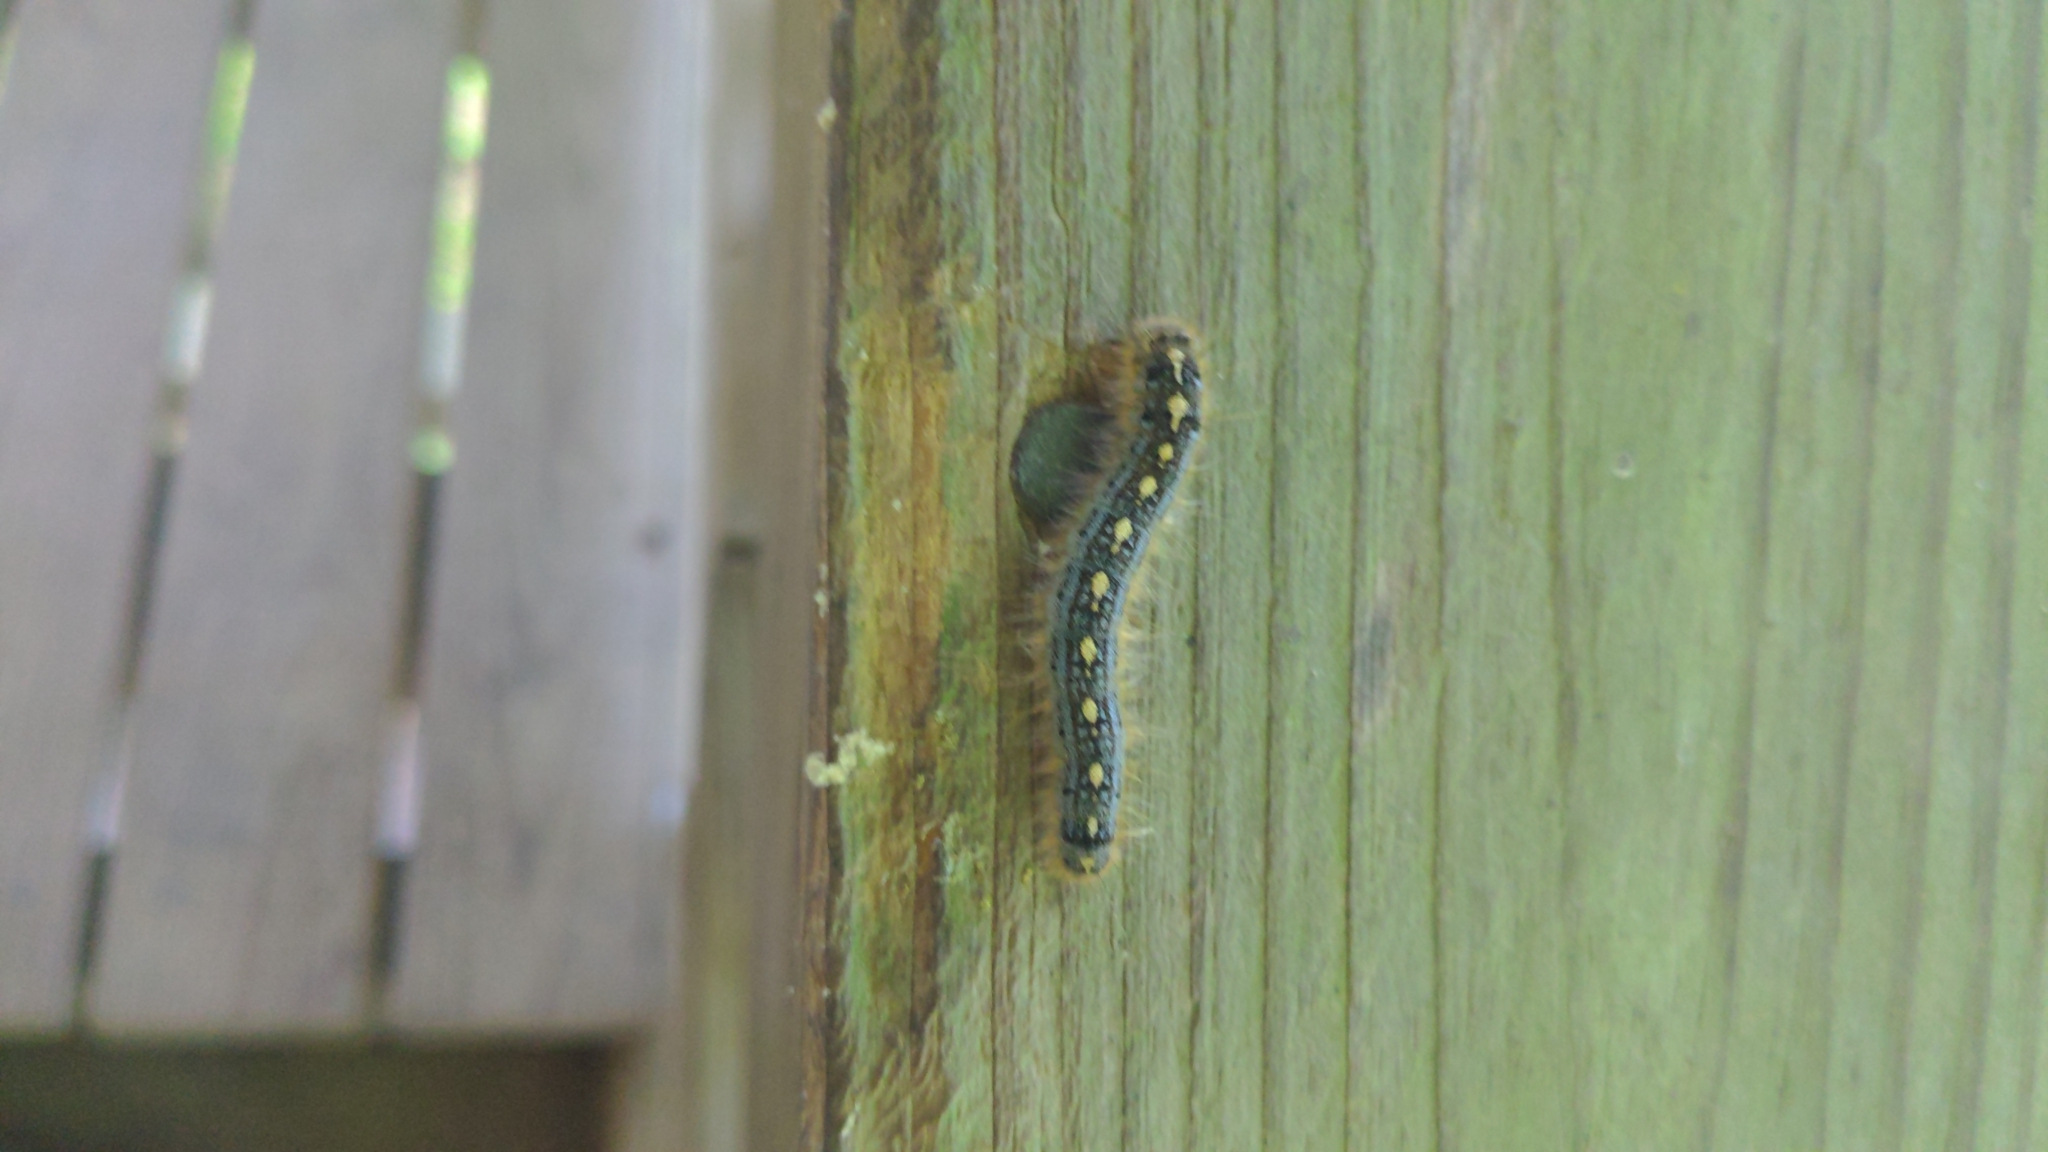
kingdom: Animalia
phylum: Arthropoda
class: Insecta
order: Lepidoptera
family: Lasiocampidae
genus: Malacosoma
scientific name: Malacosoma disstria
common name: Forest tent caterpillar
